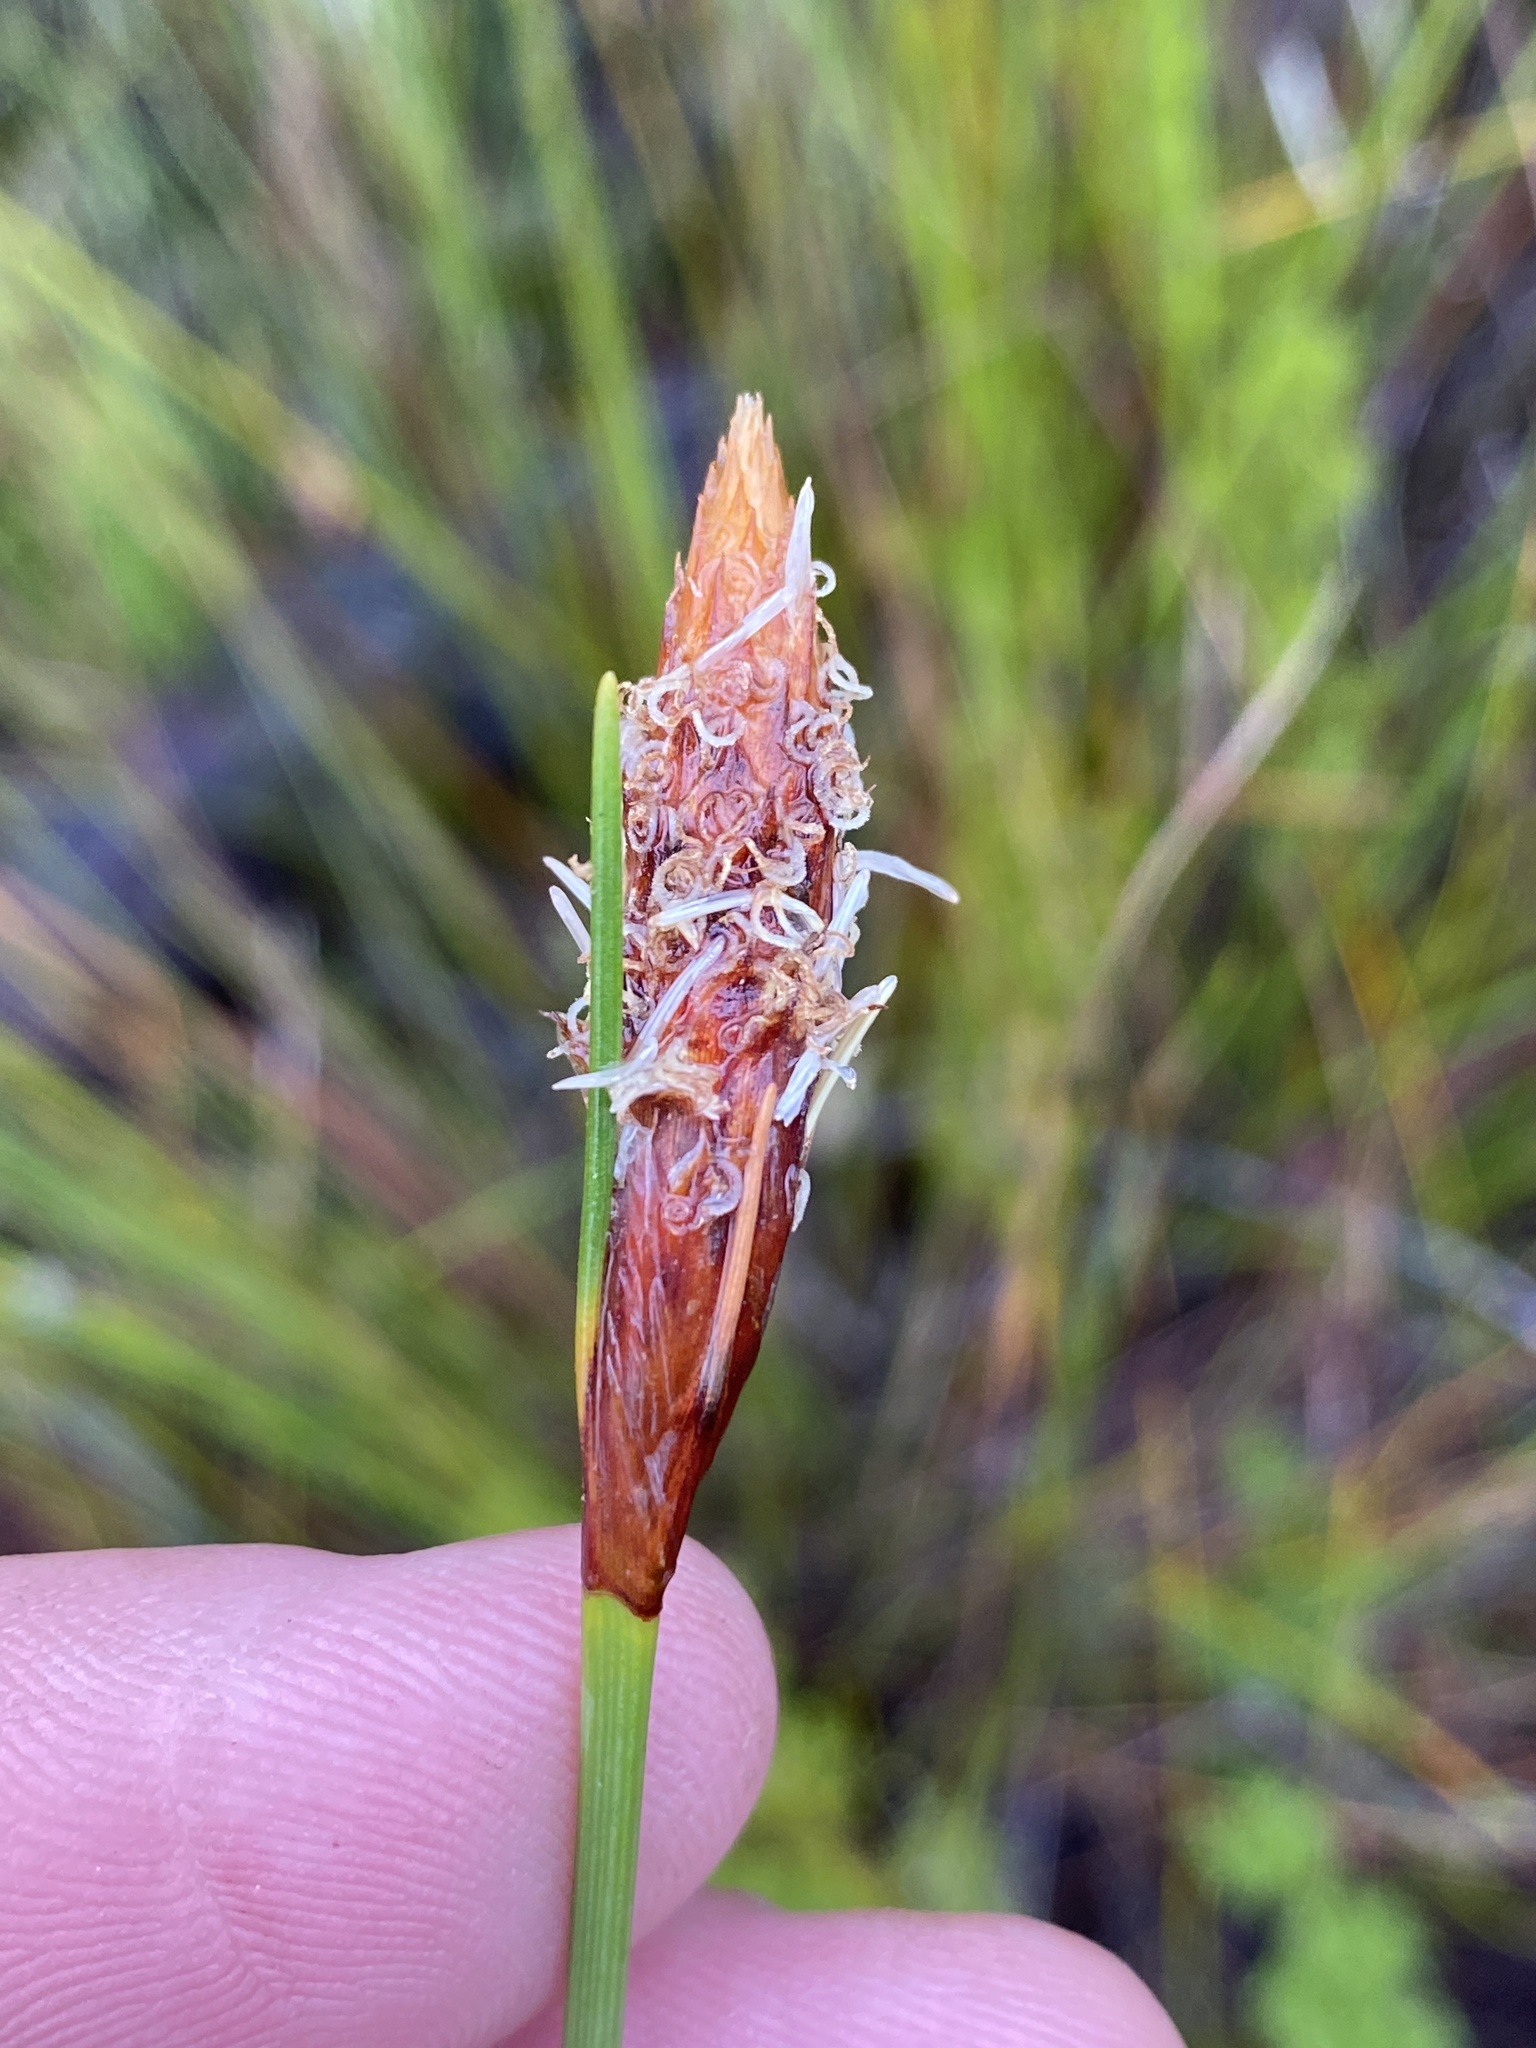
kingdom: Plantae
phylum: Tracheophyta
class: Liliopsida
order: Poales
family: Cyperaceae
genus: Ficinia
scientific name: Ficinia deusta
